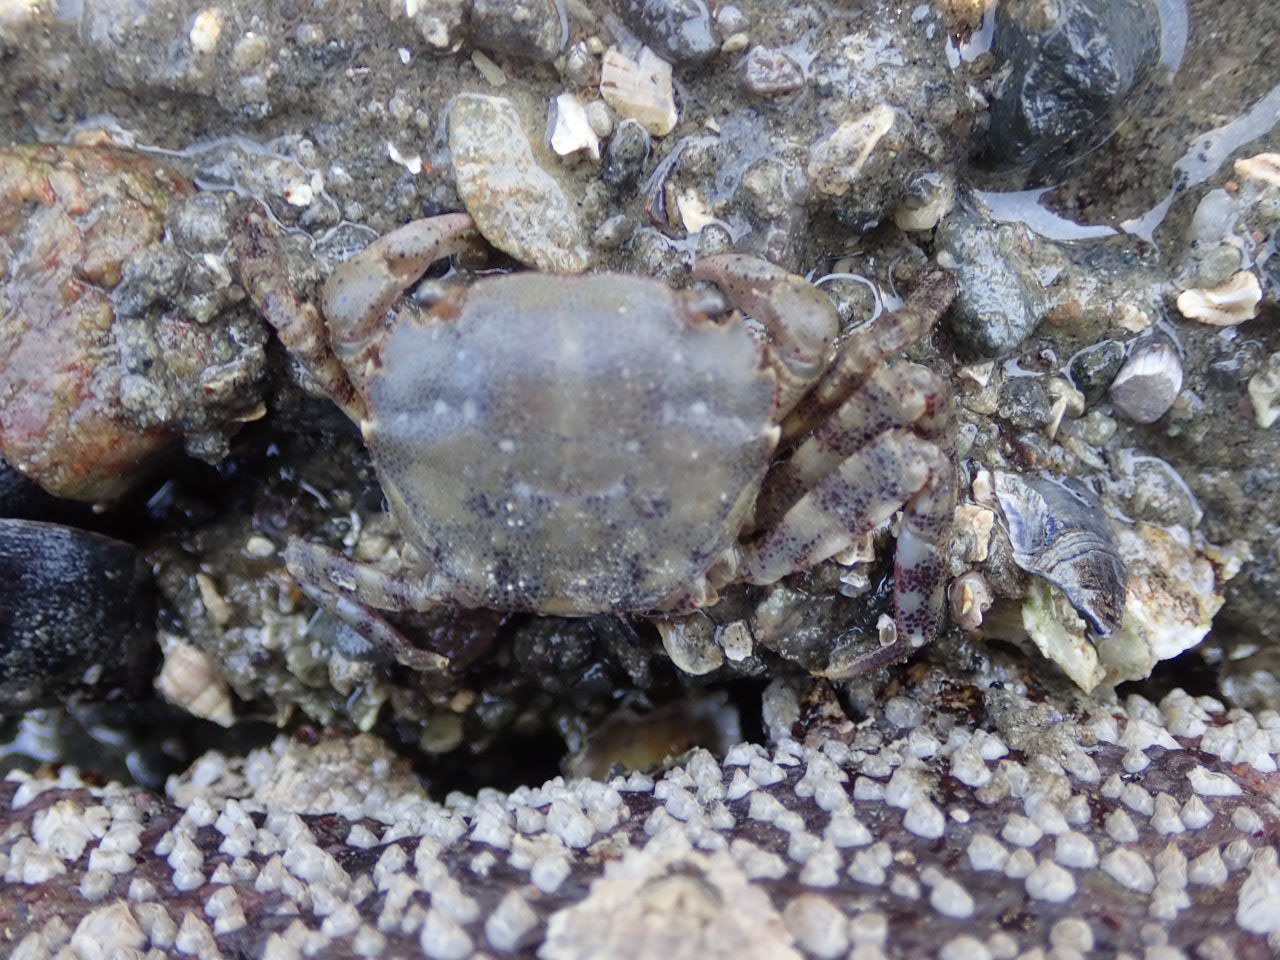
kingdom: Animalia
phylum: Arthropoda
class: Malacostraca
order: Decapoda
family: Varunidae
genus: Hemigrapsus
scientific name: Hemigrapsus sanguineus
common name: Asian shore crab
